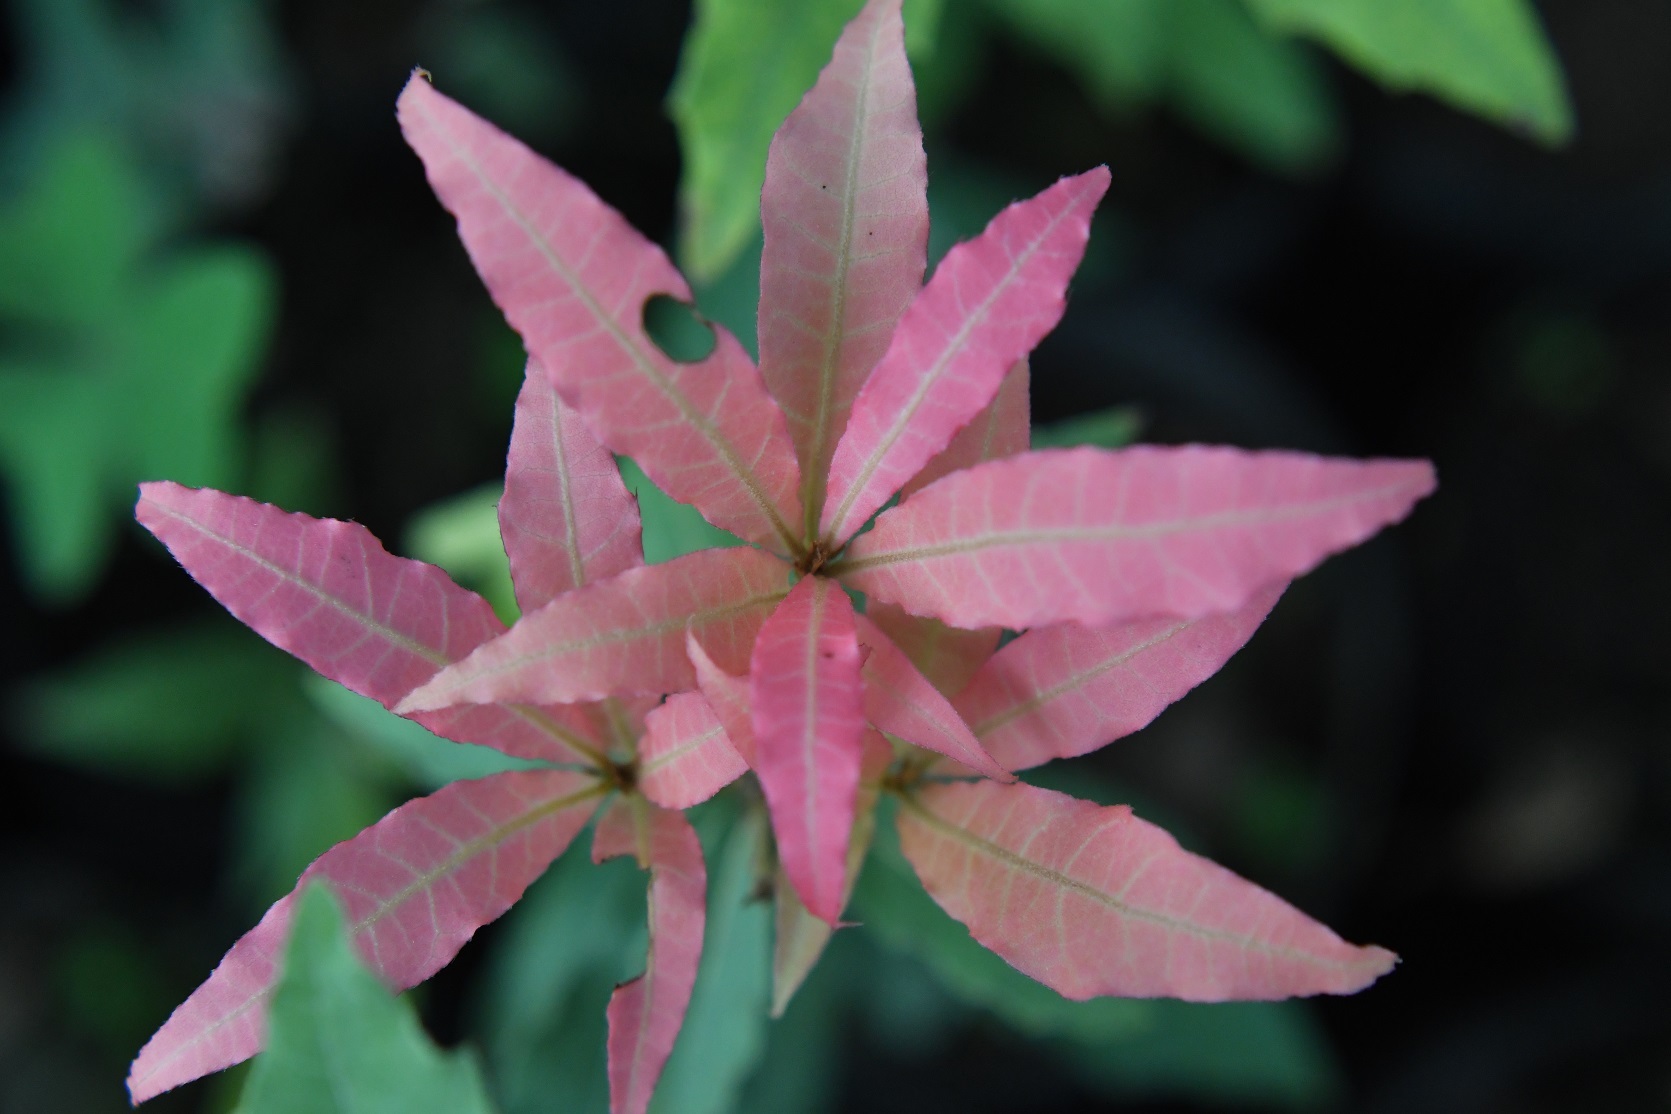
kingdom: Plantae
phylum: Tracheophyta
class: Magnoliopsida
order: Fagales
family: Fagaceae
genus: Quercus
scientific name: Quercus acatenangensis
